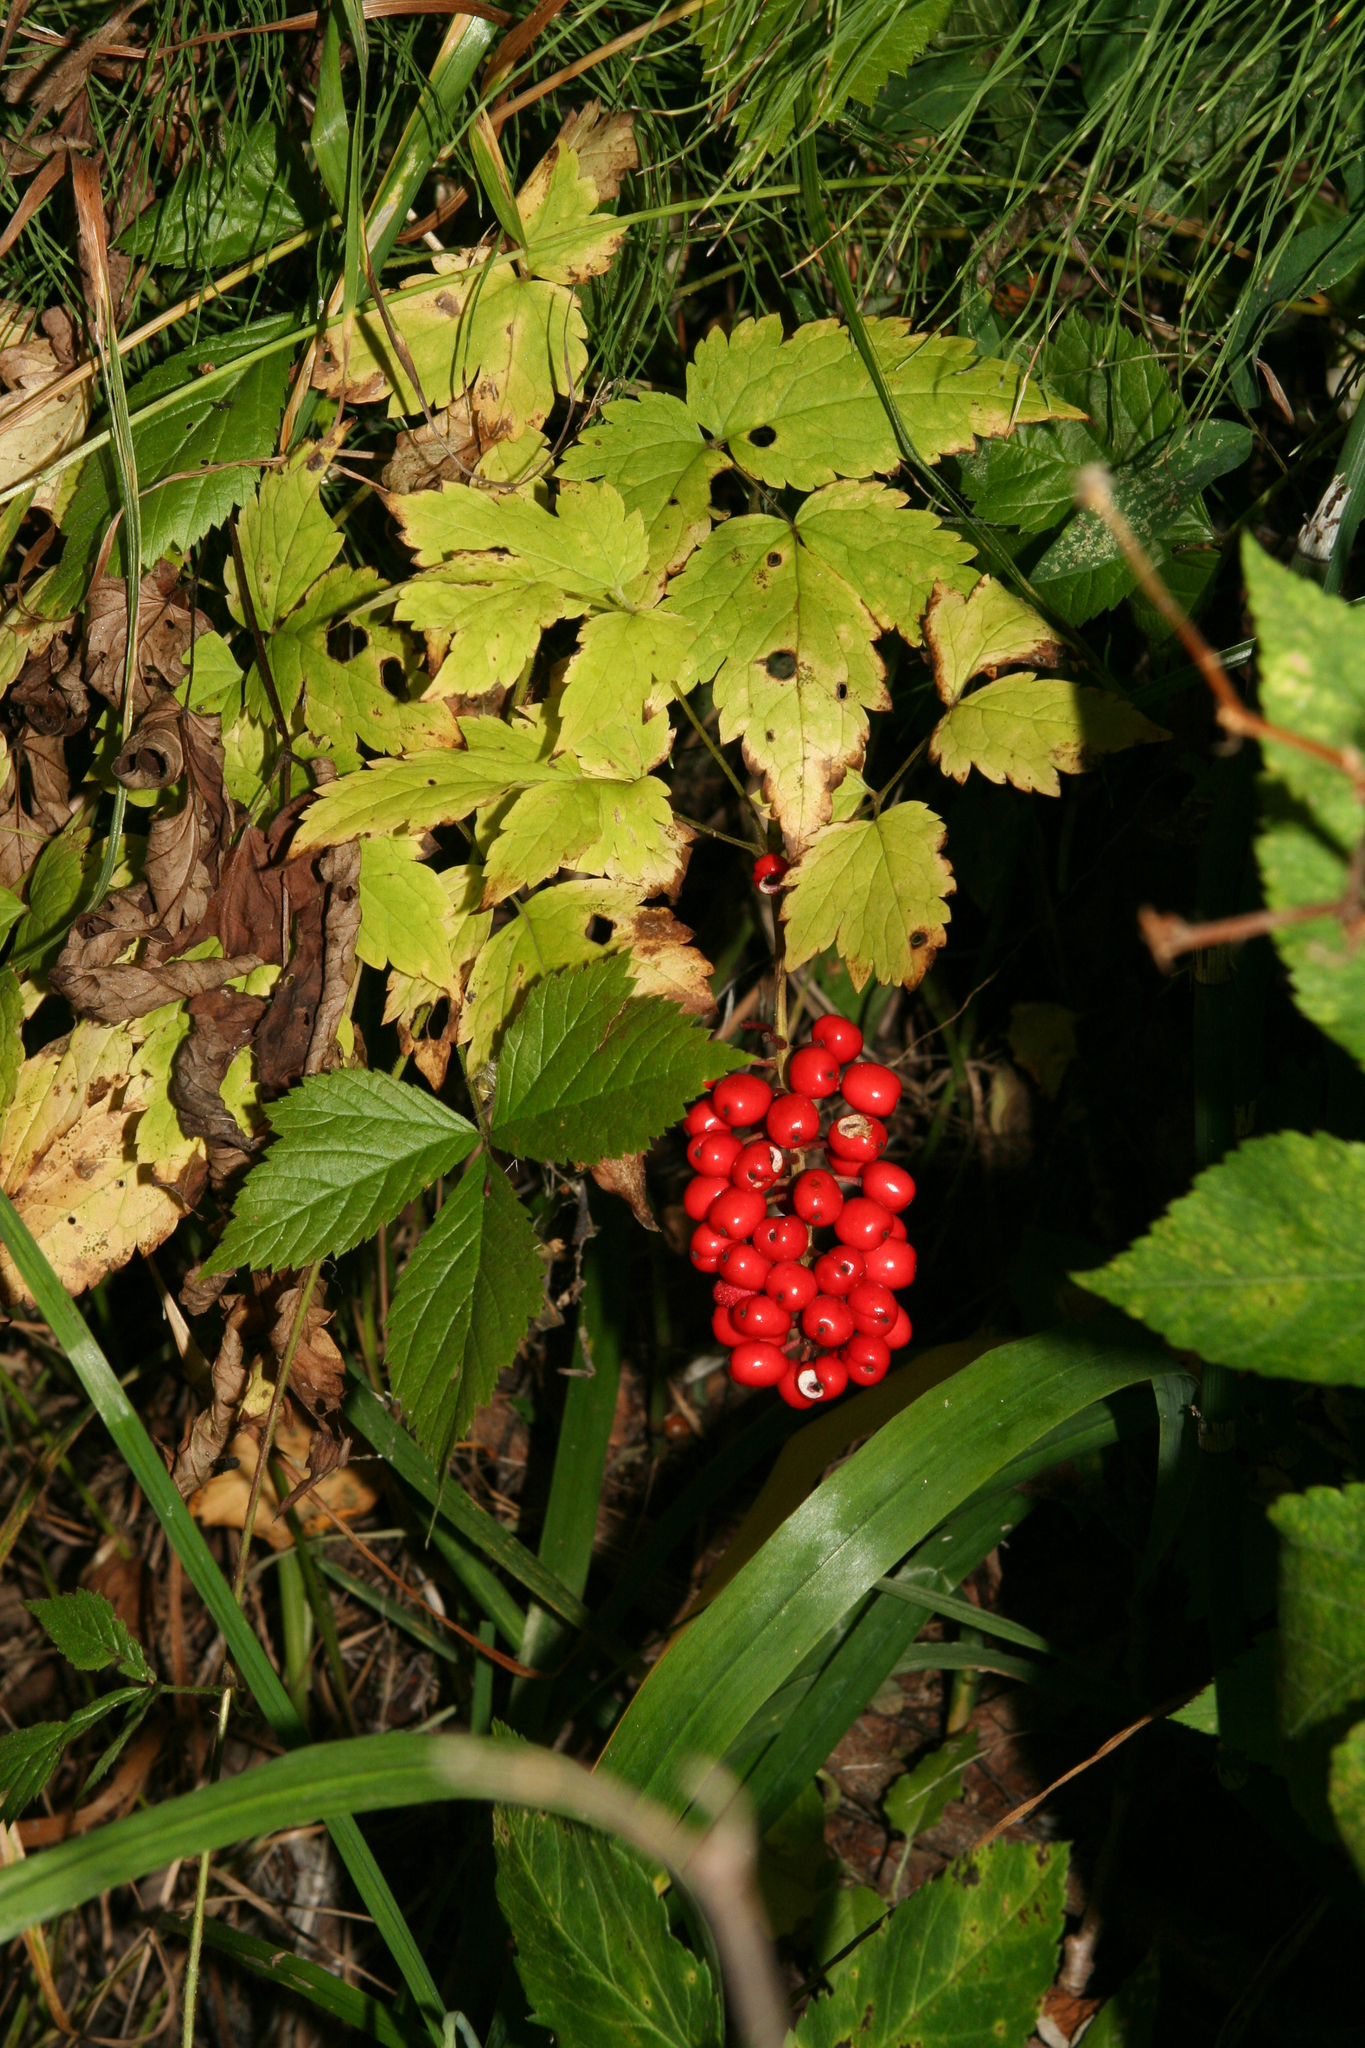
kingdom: Plantae
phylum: Tracheophyta
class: Magnoliopsida
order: Ranunculales
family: Ranunculaceae
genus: Actaea
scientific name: Actaea erythrocarpa
